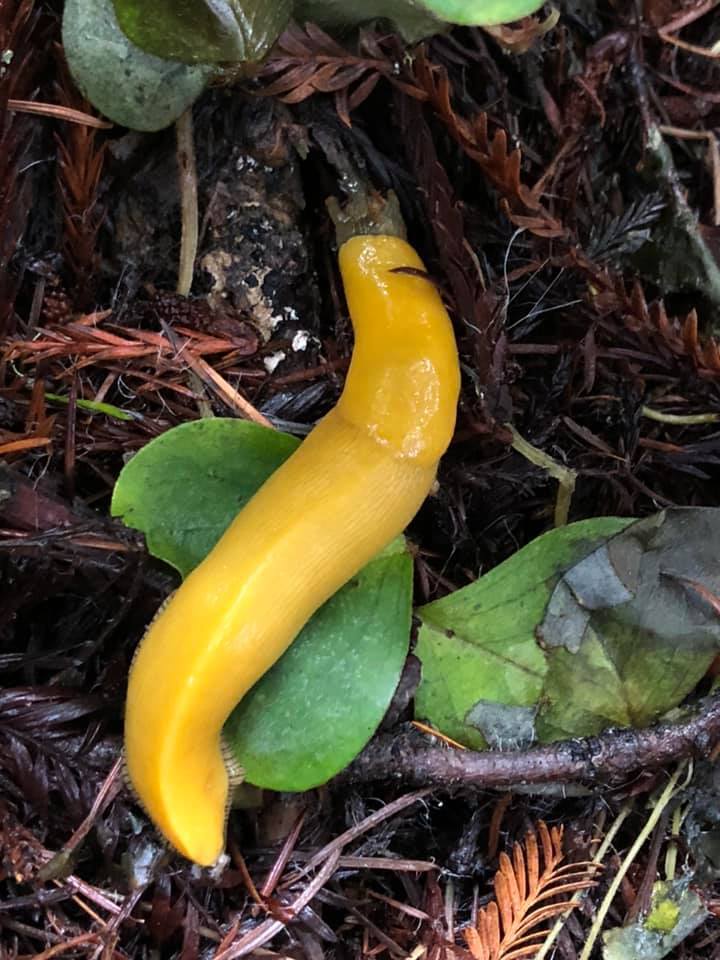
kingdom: Animalia
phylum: Mollusca
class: Gastropoda
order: Stylommatophora
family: Ariolimacidae
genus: Ariolimax
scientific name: Ariolimax dolichophallus
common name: Slender banana slug
